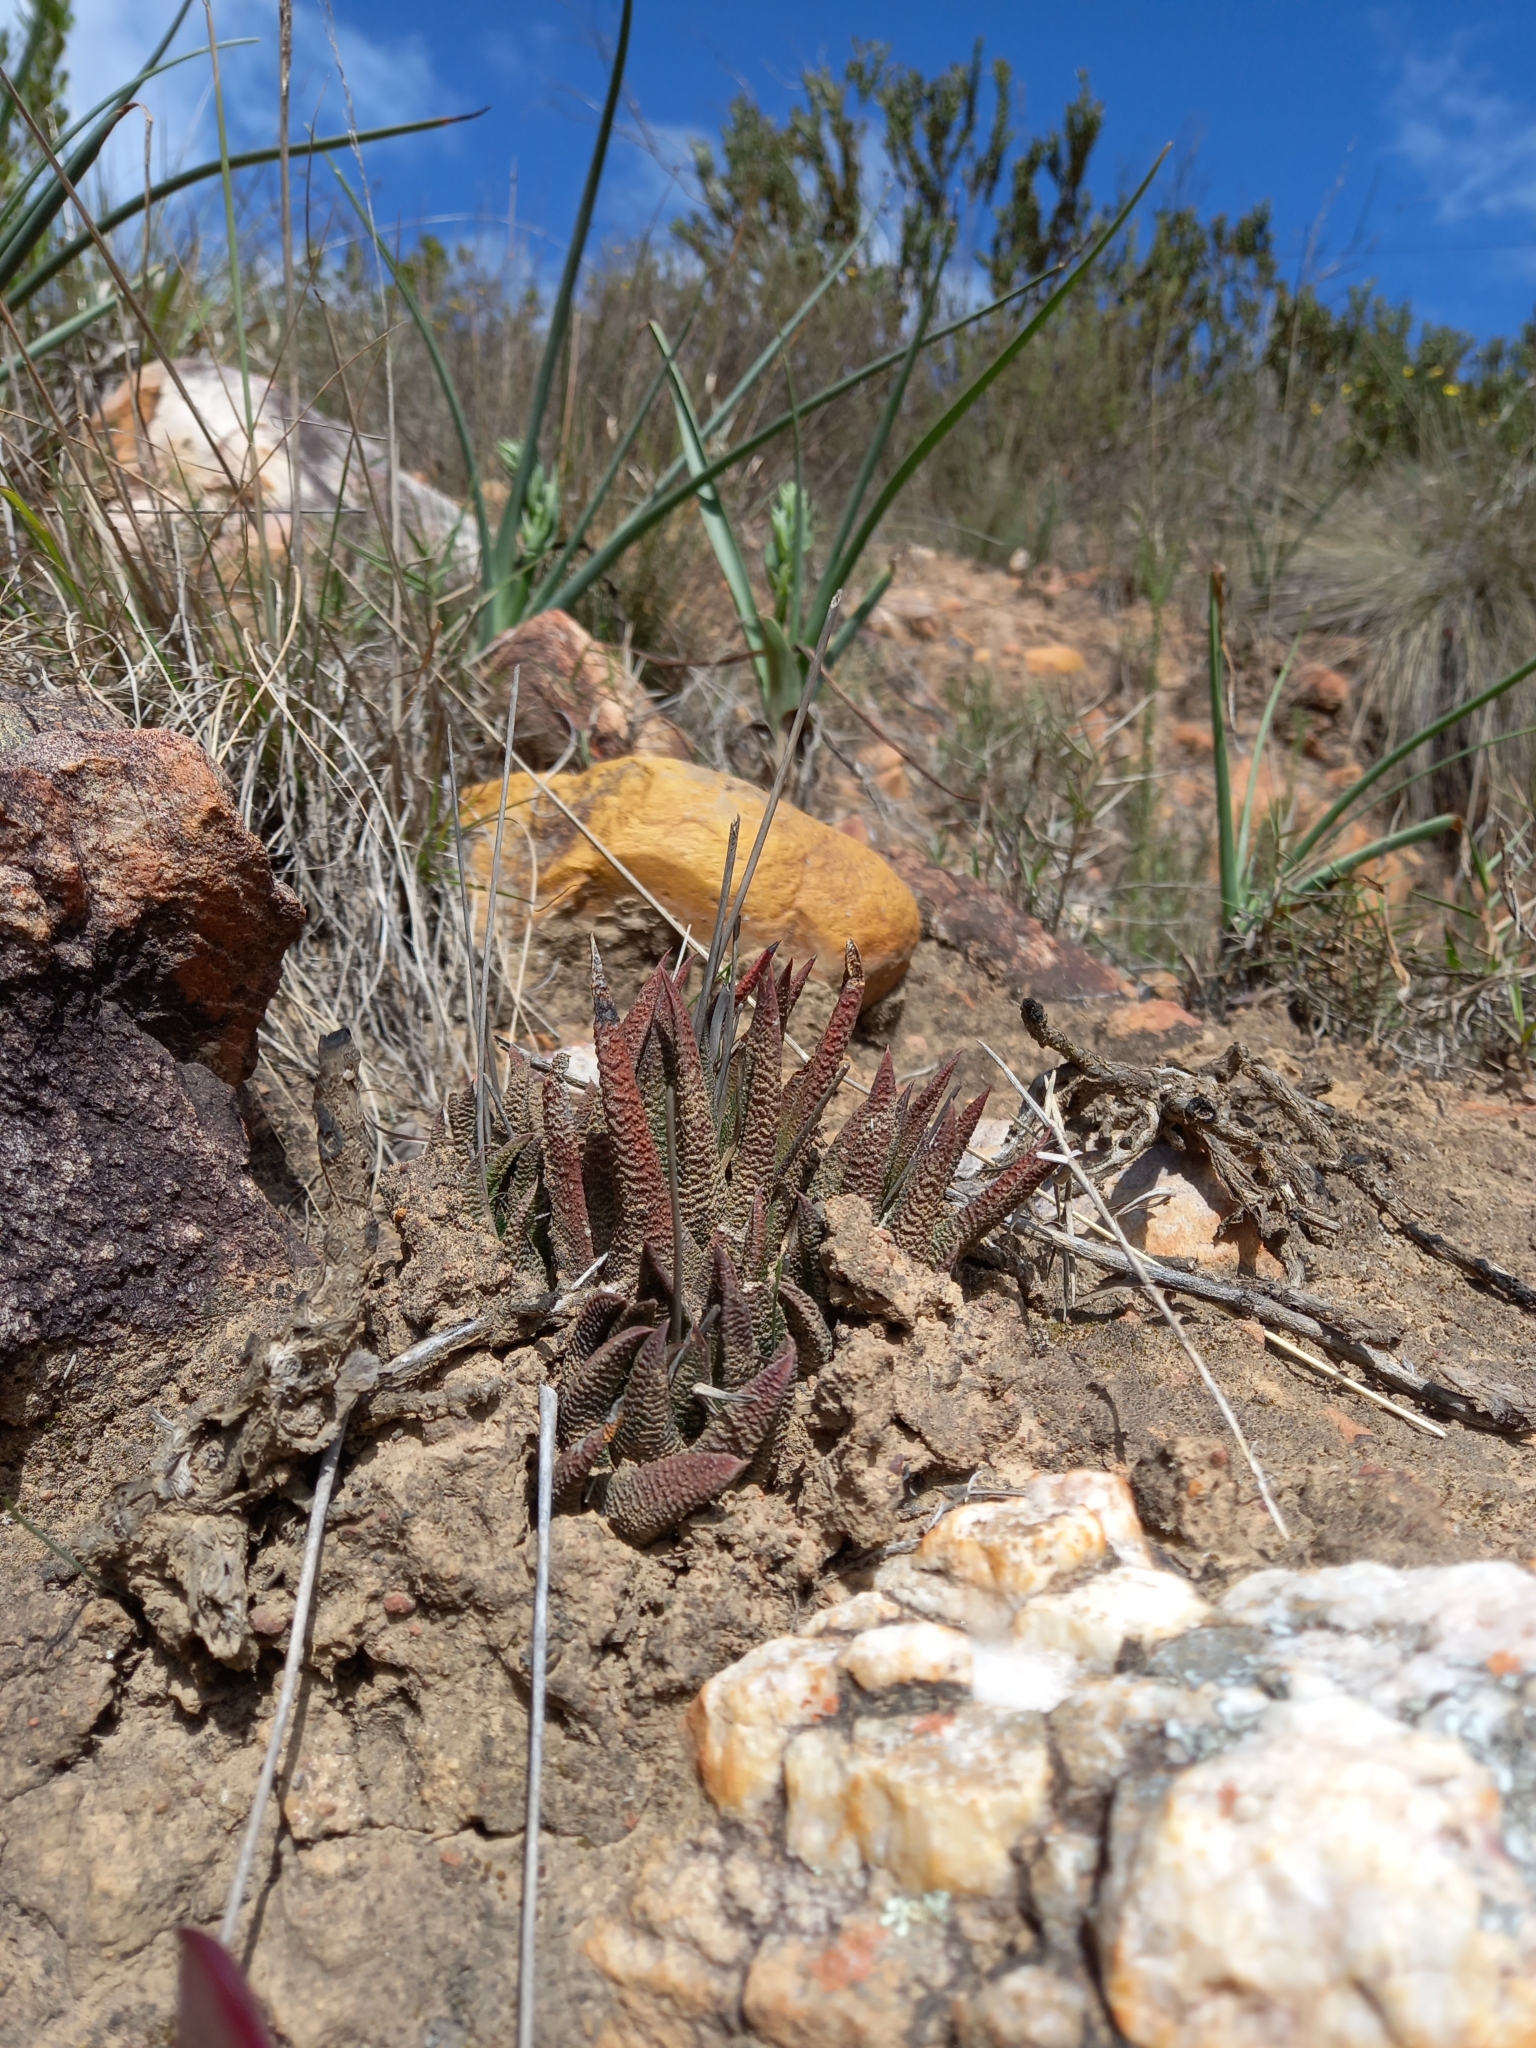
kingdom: Plantae
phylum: Tracheophyta
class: Liliopsida
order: Asparagales
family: Asphodelaceae
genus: Haworthiopsis
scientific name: Haworthiopsis scabra
